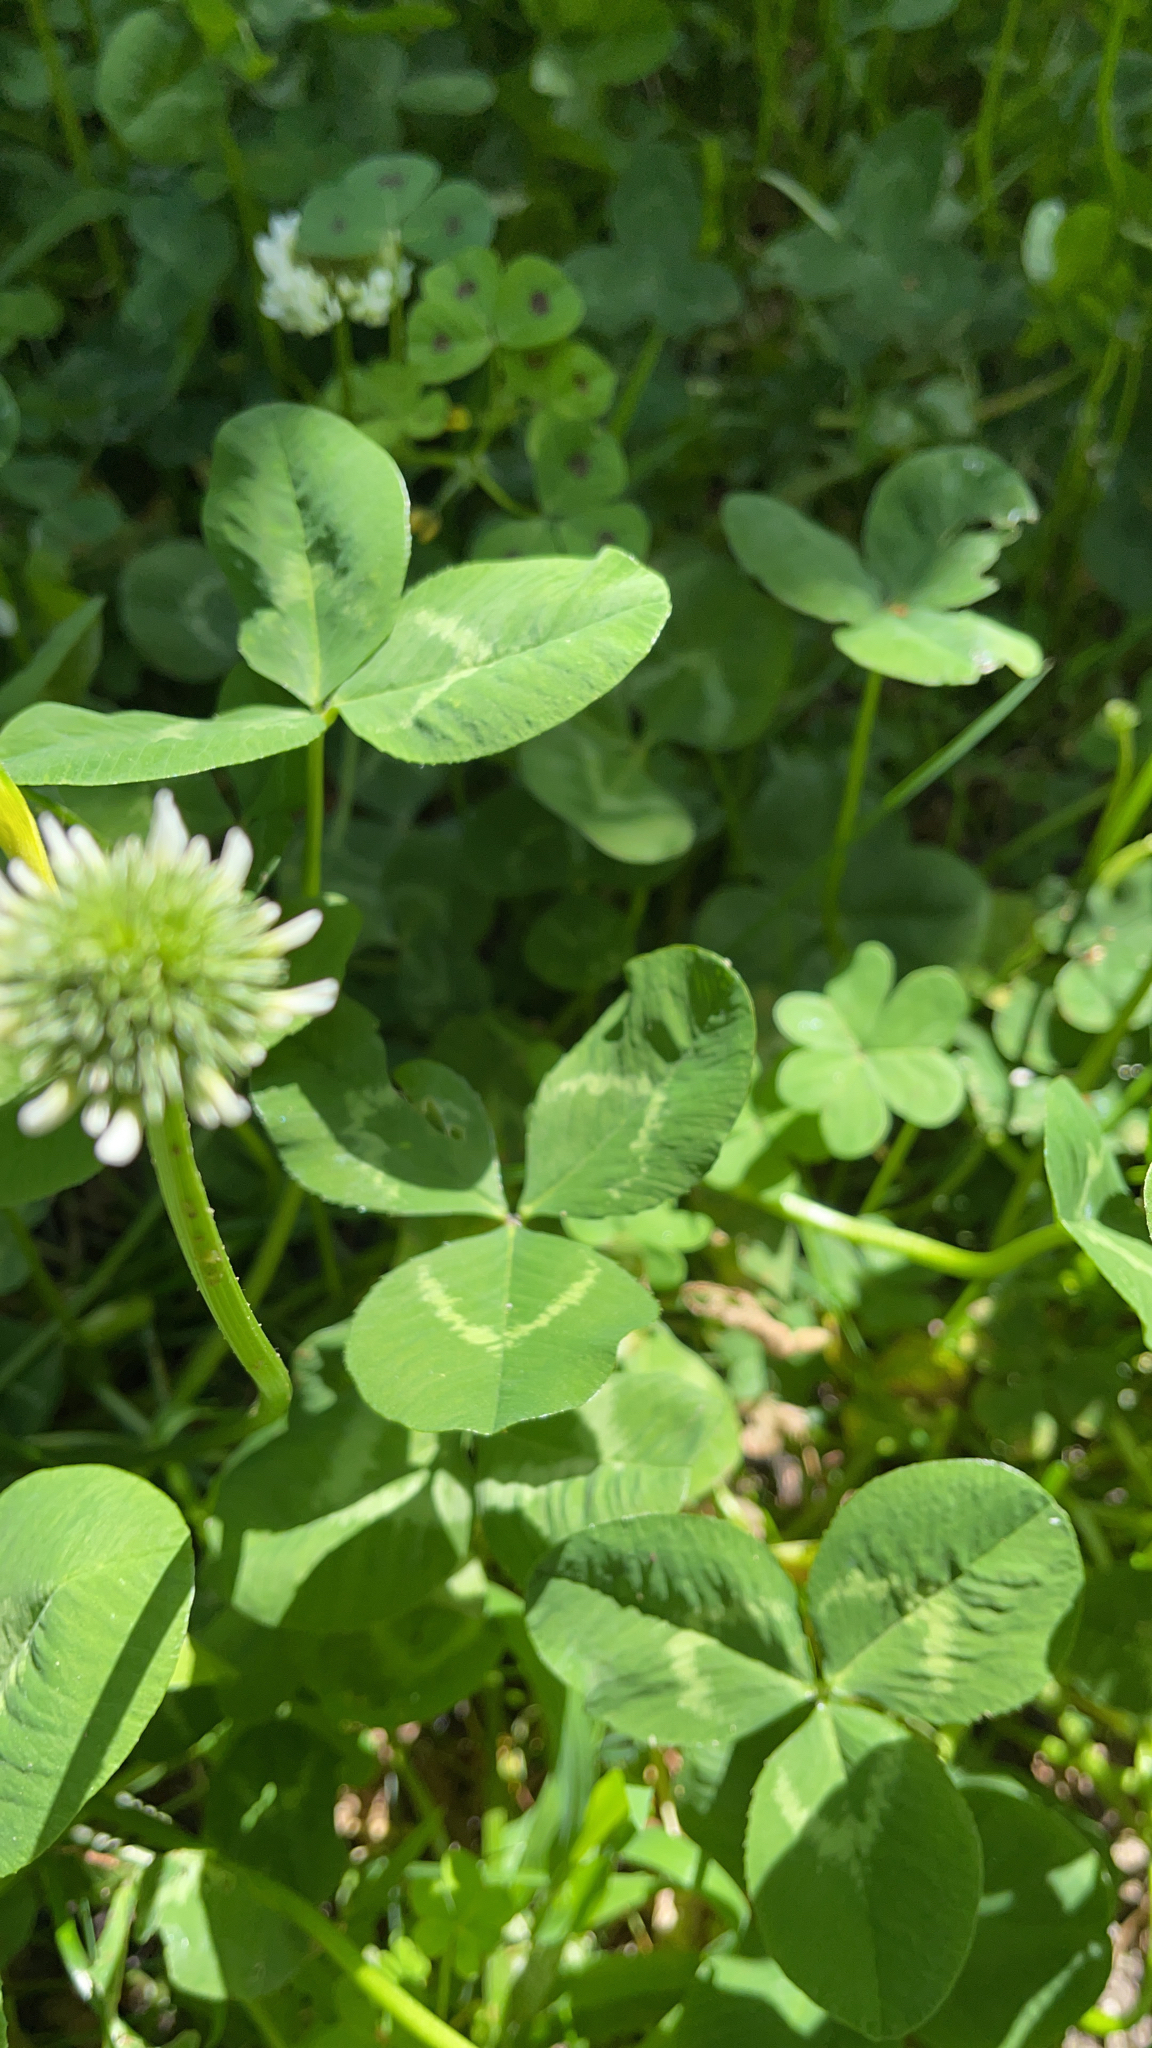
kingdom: Plantae
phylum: Tracheophyta
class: Magnoliopsida
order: Fabales
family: Fabaceae
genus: Trifolium
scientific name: Trifolium repens
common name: White clover
